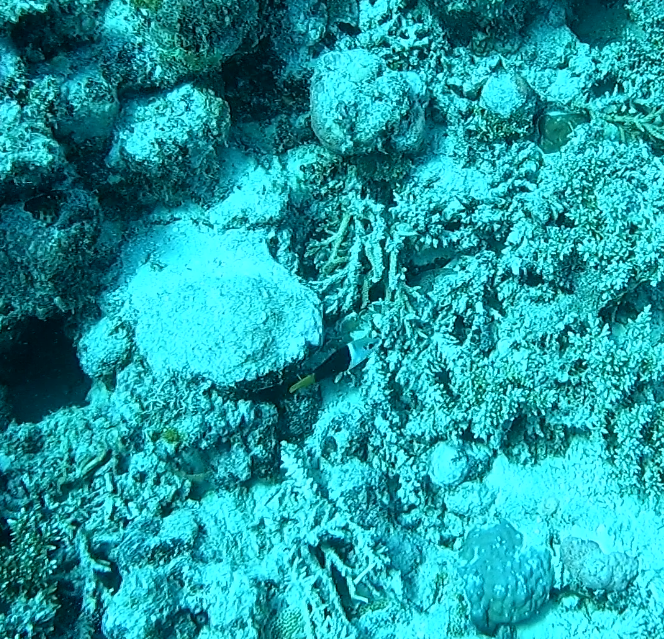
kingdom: Animalia
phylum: Chordata
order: Perciformes
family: Labridae
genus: Hemigymnus
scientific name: Hemigymnus melapterus
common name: Blackeye thicklip
